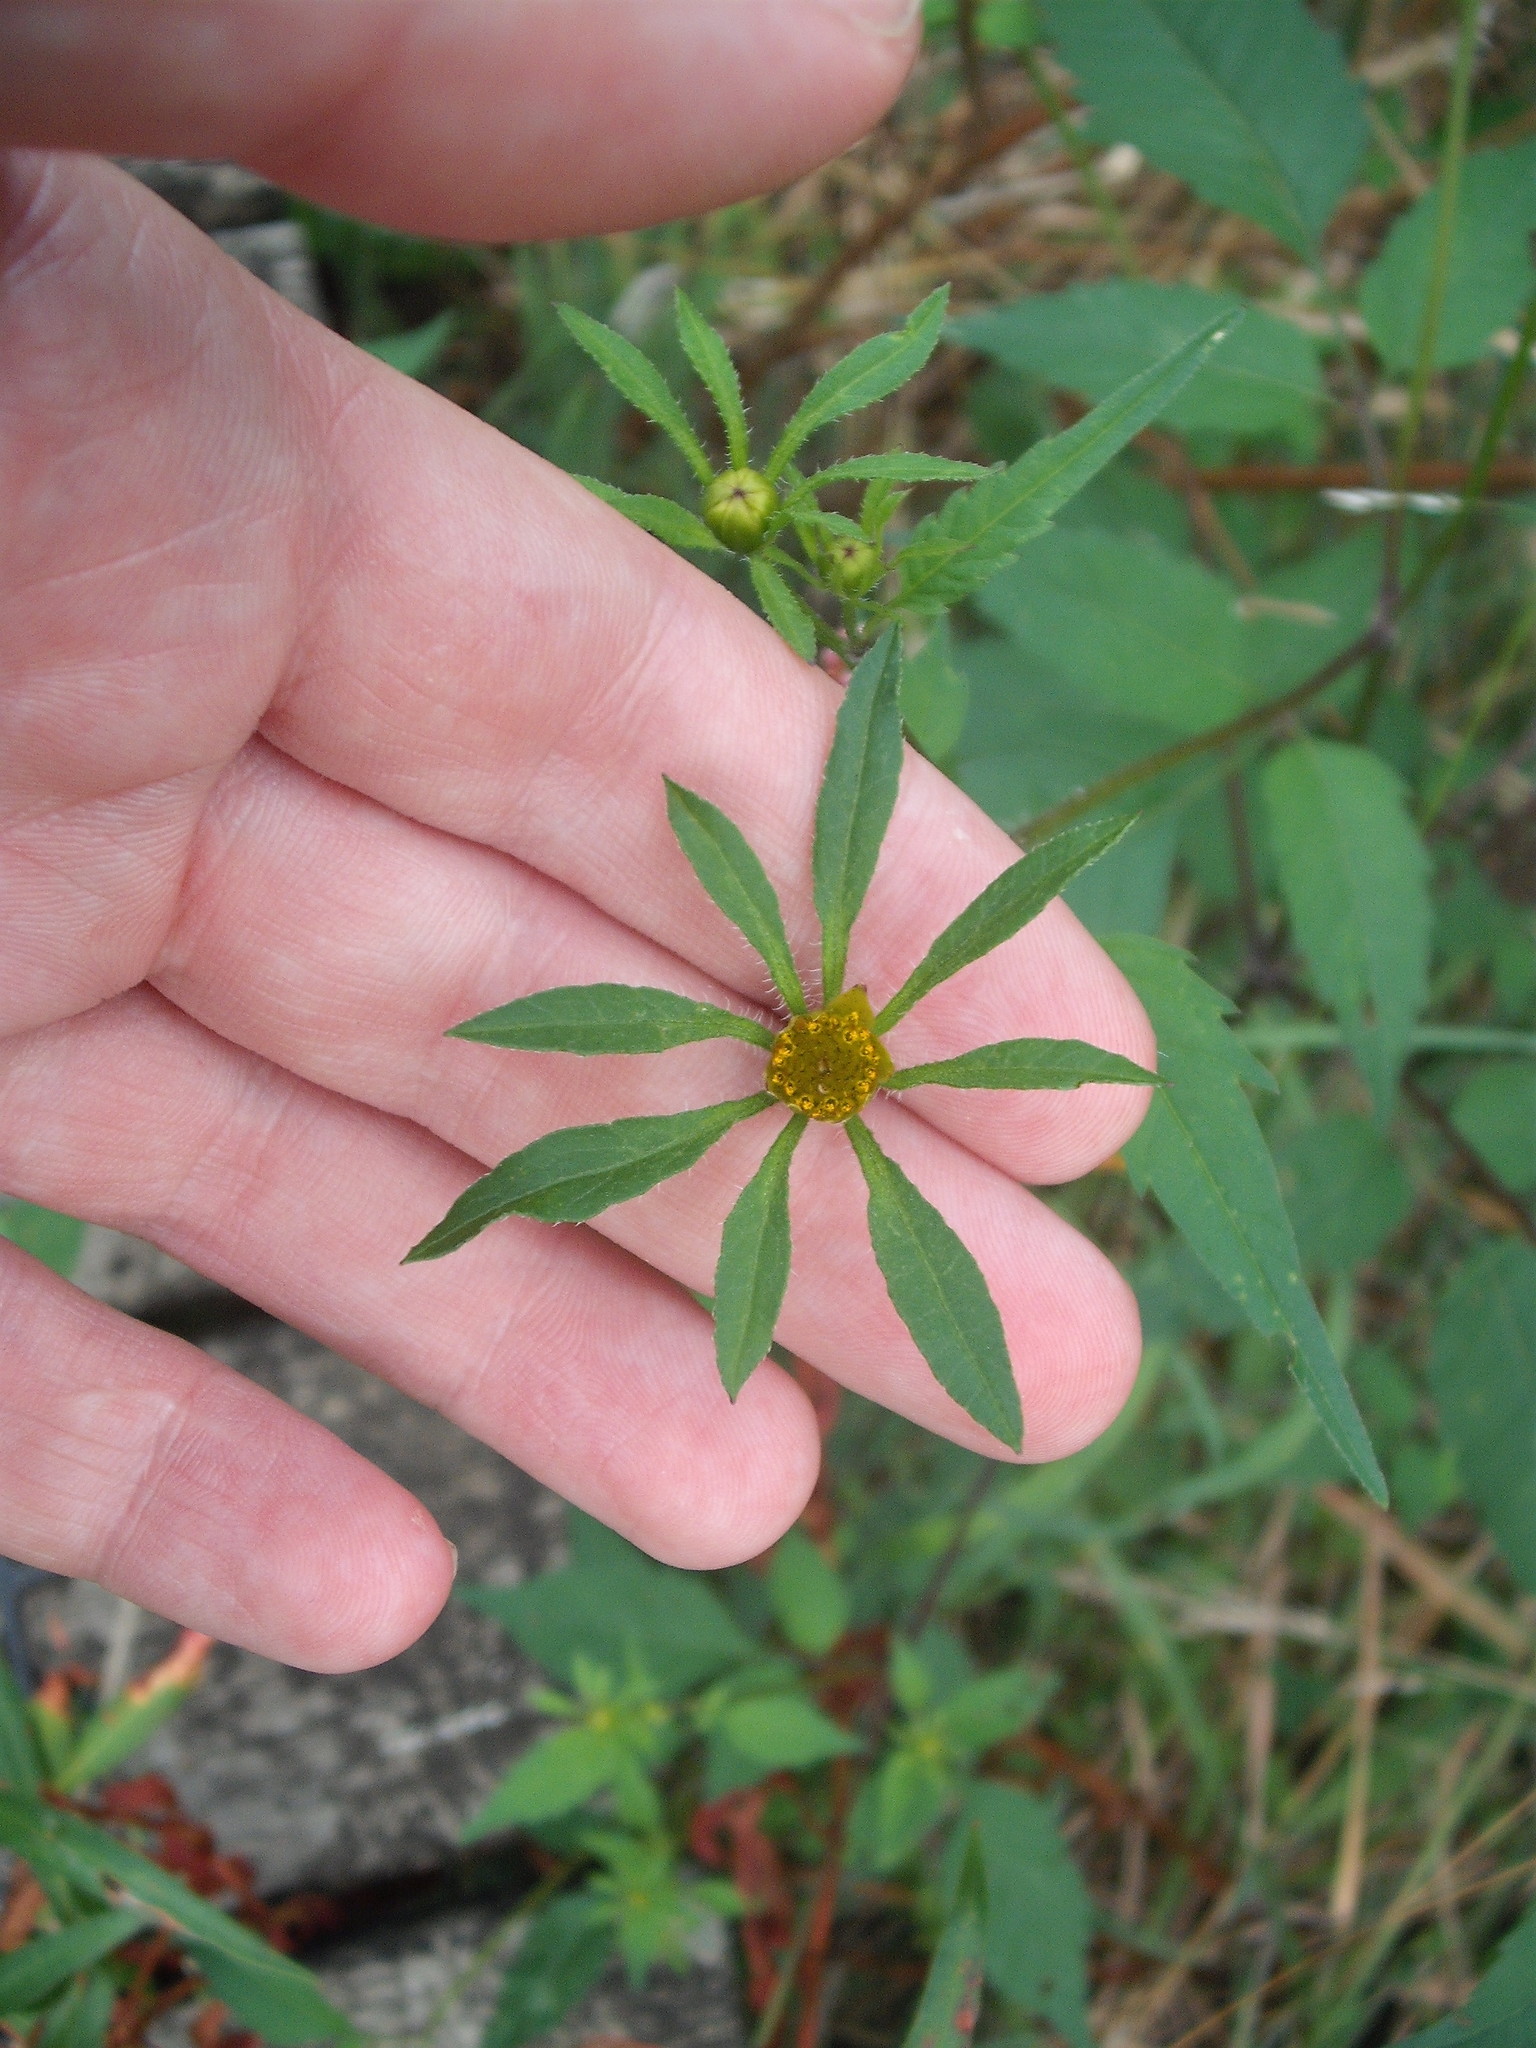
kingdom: Plantae
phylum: Tracheophyta
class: Magnoliopsida
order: Asterales
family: Asteraceae
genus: Bidens
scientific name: Bidens frondosa
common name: Beggarticks
